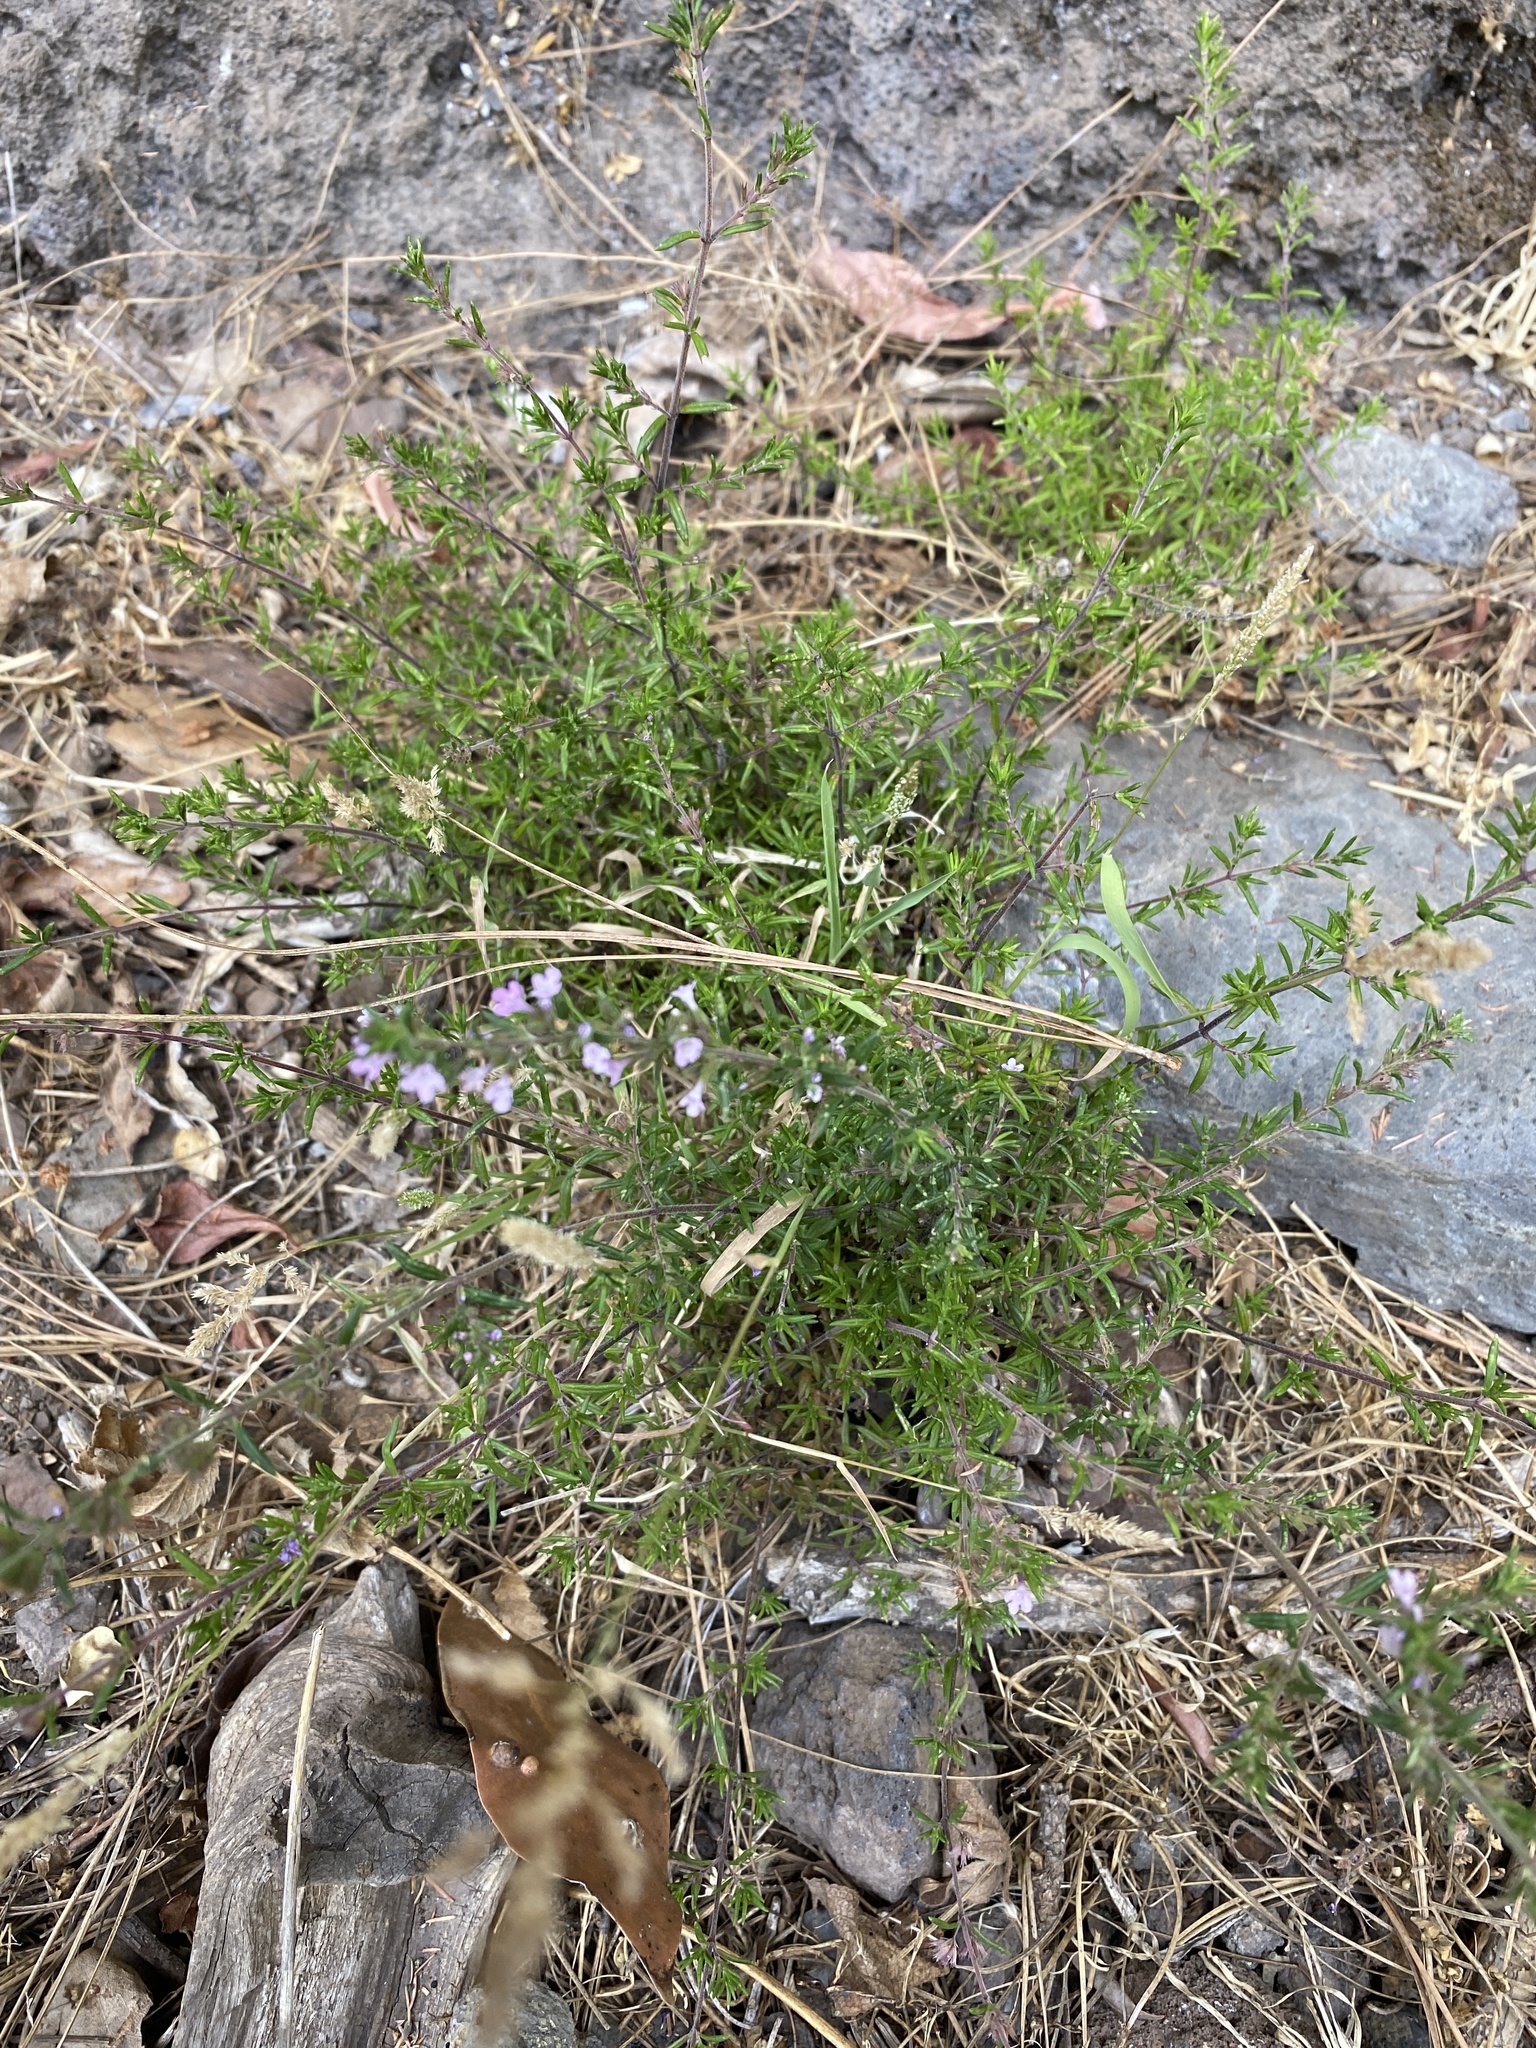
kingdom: Plantae
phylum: Tracheophyta
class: Magnoliopsida
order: Lamiales
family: Lamiaceae
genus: Micromeria
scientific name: Micromeria herpyllomorpha
